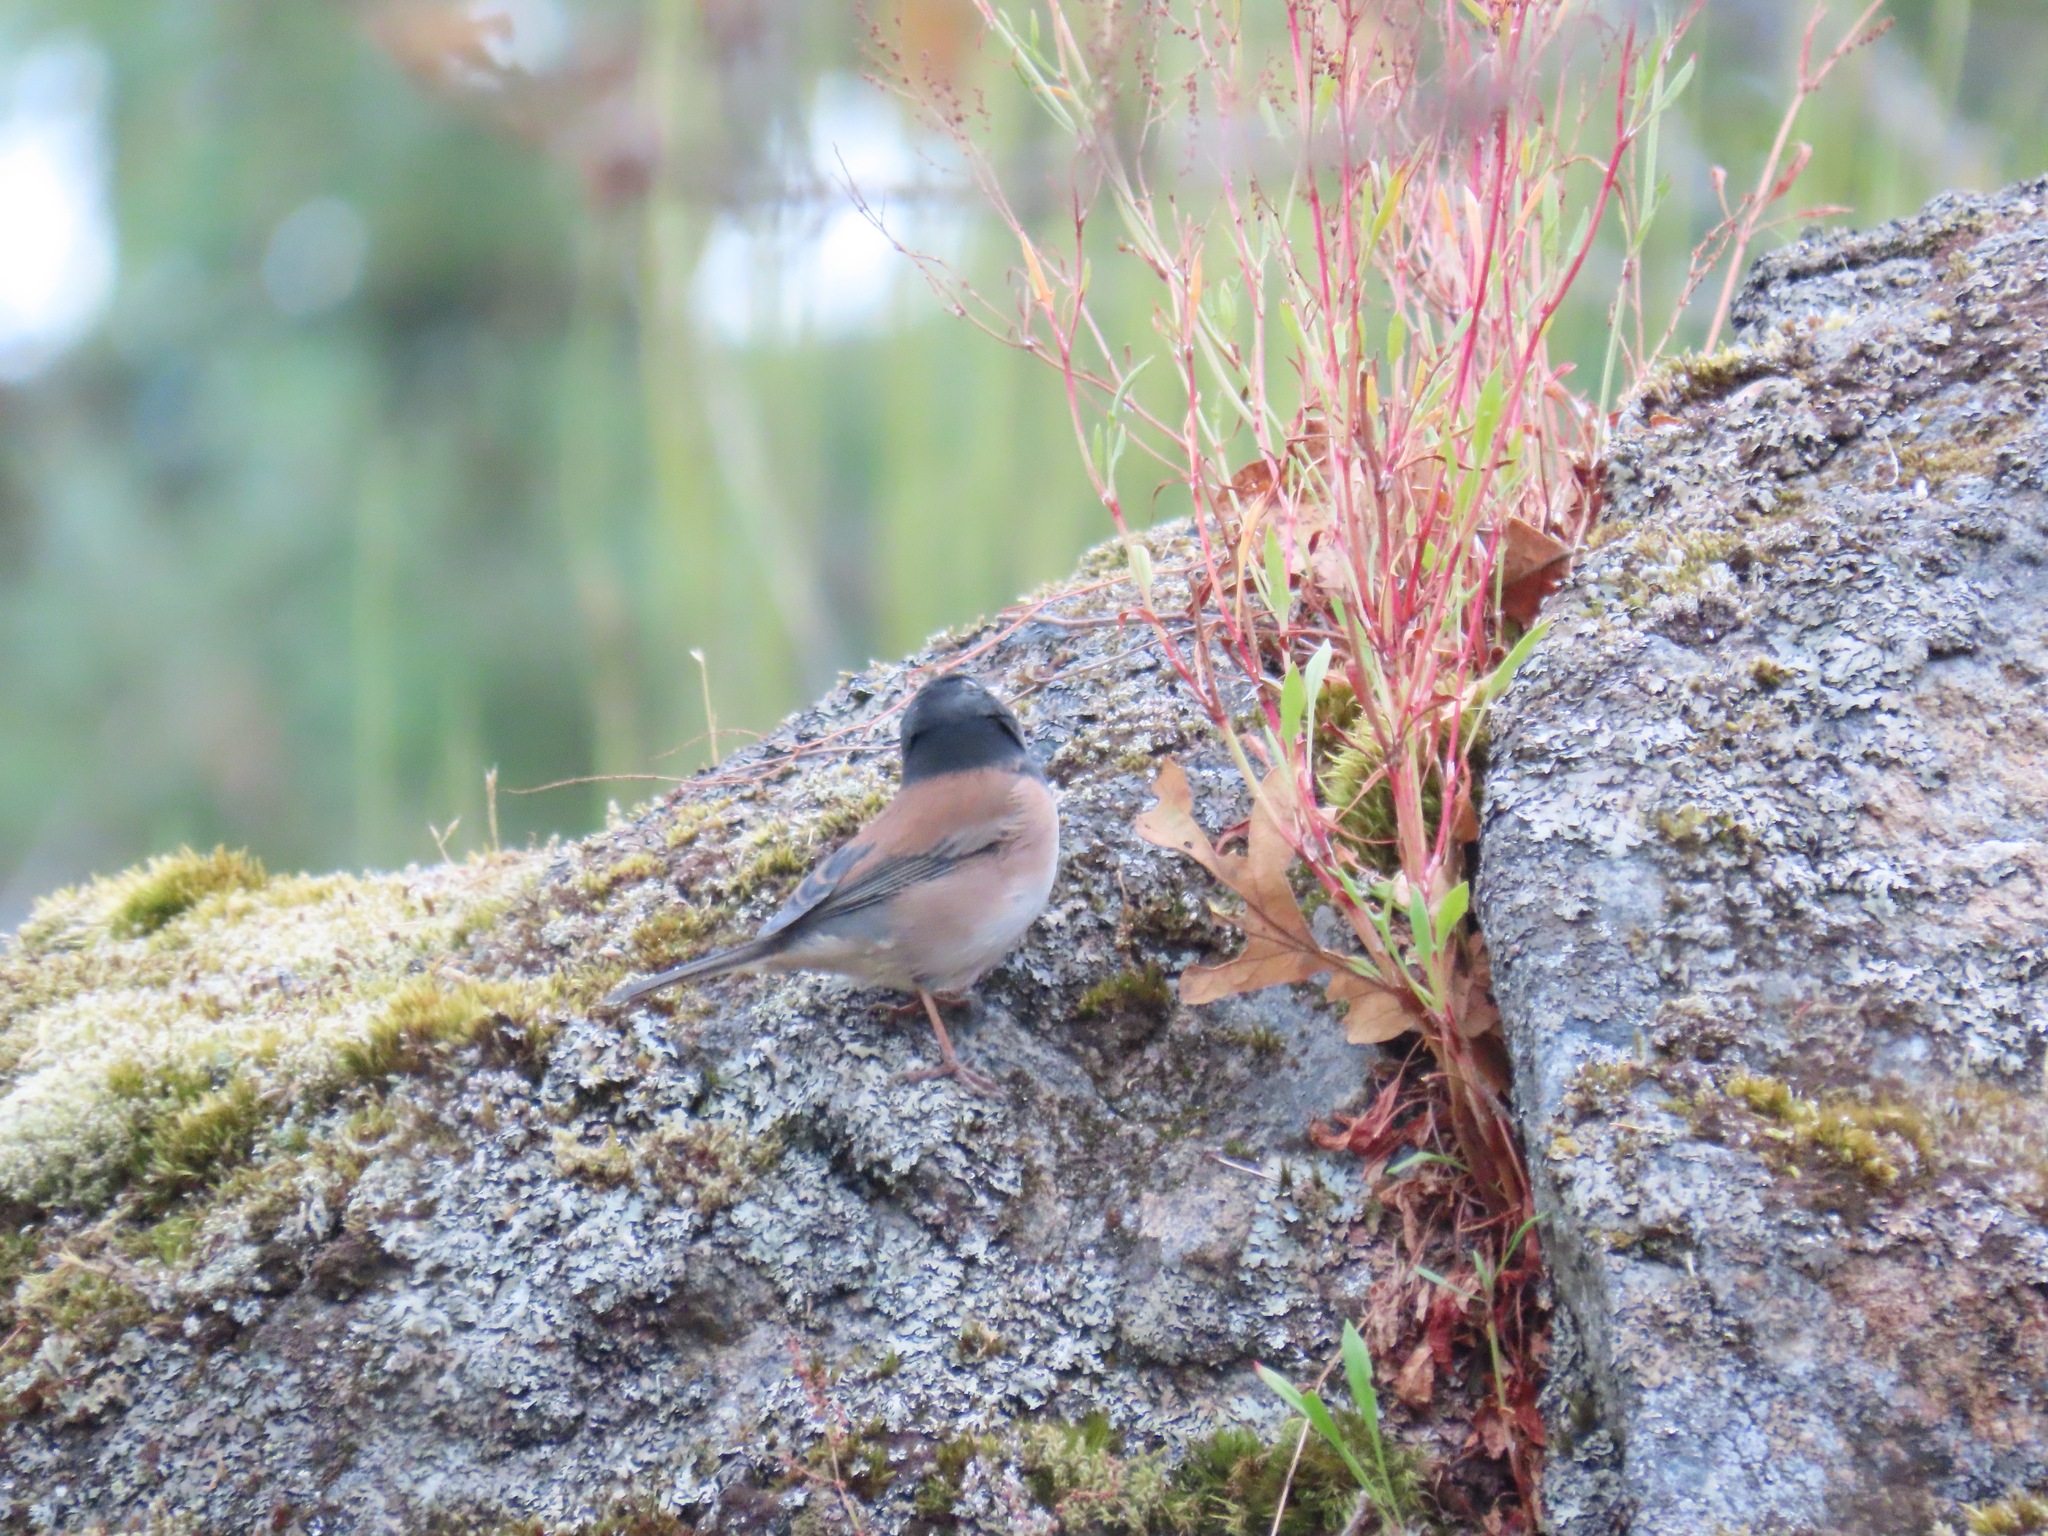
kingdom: Animalia
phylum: Chordata
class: Aves
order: Passeriformes
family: Passerellidae
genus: Junco
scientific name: Junco hyemalis
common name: Dark-eyed junco
